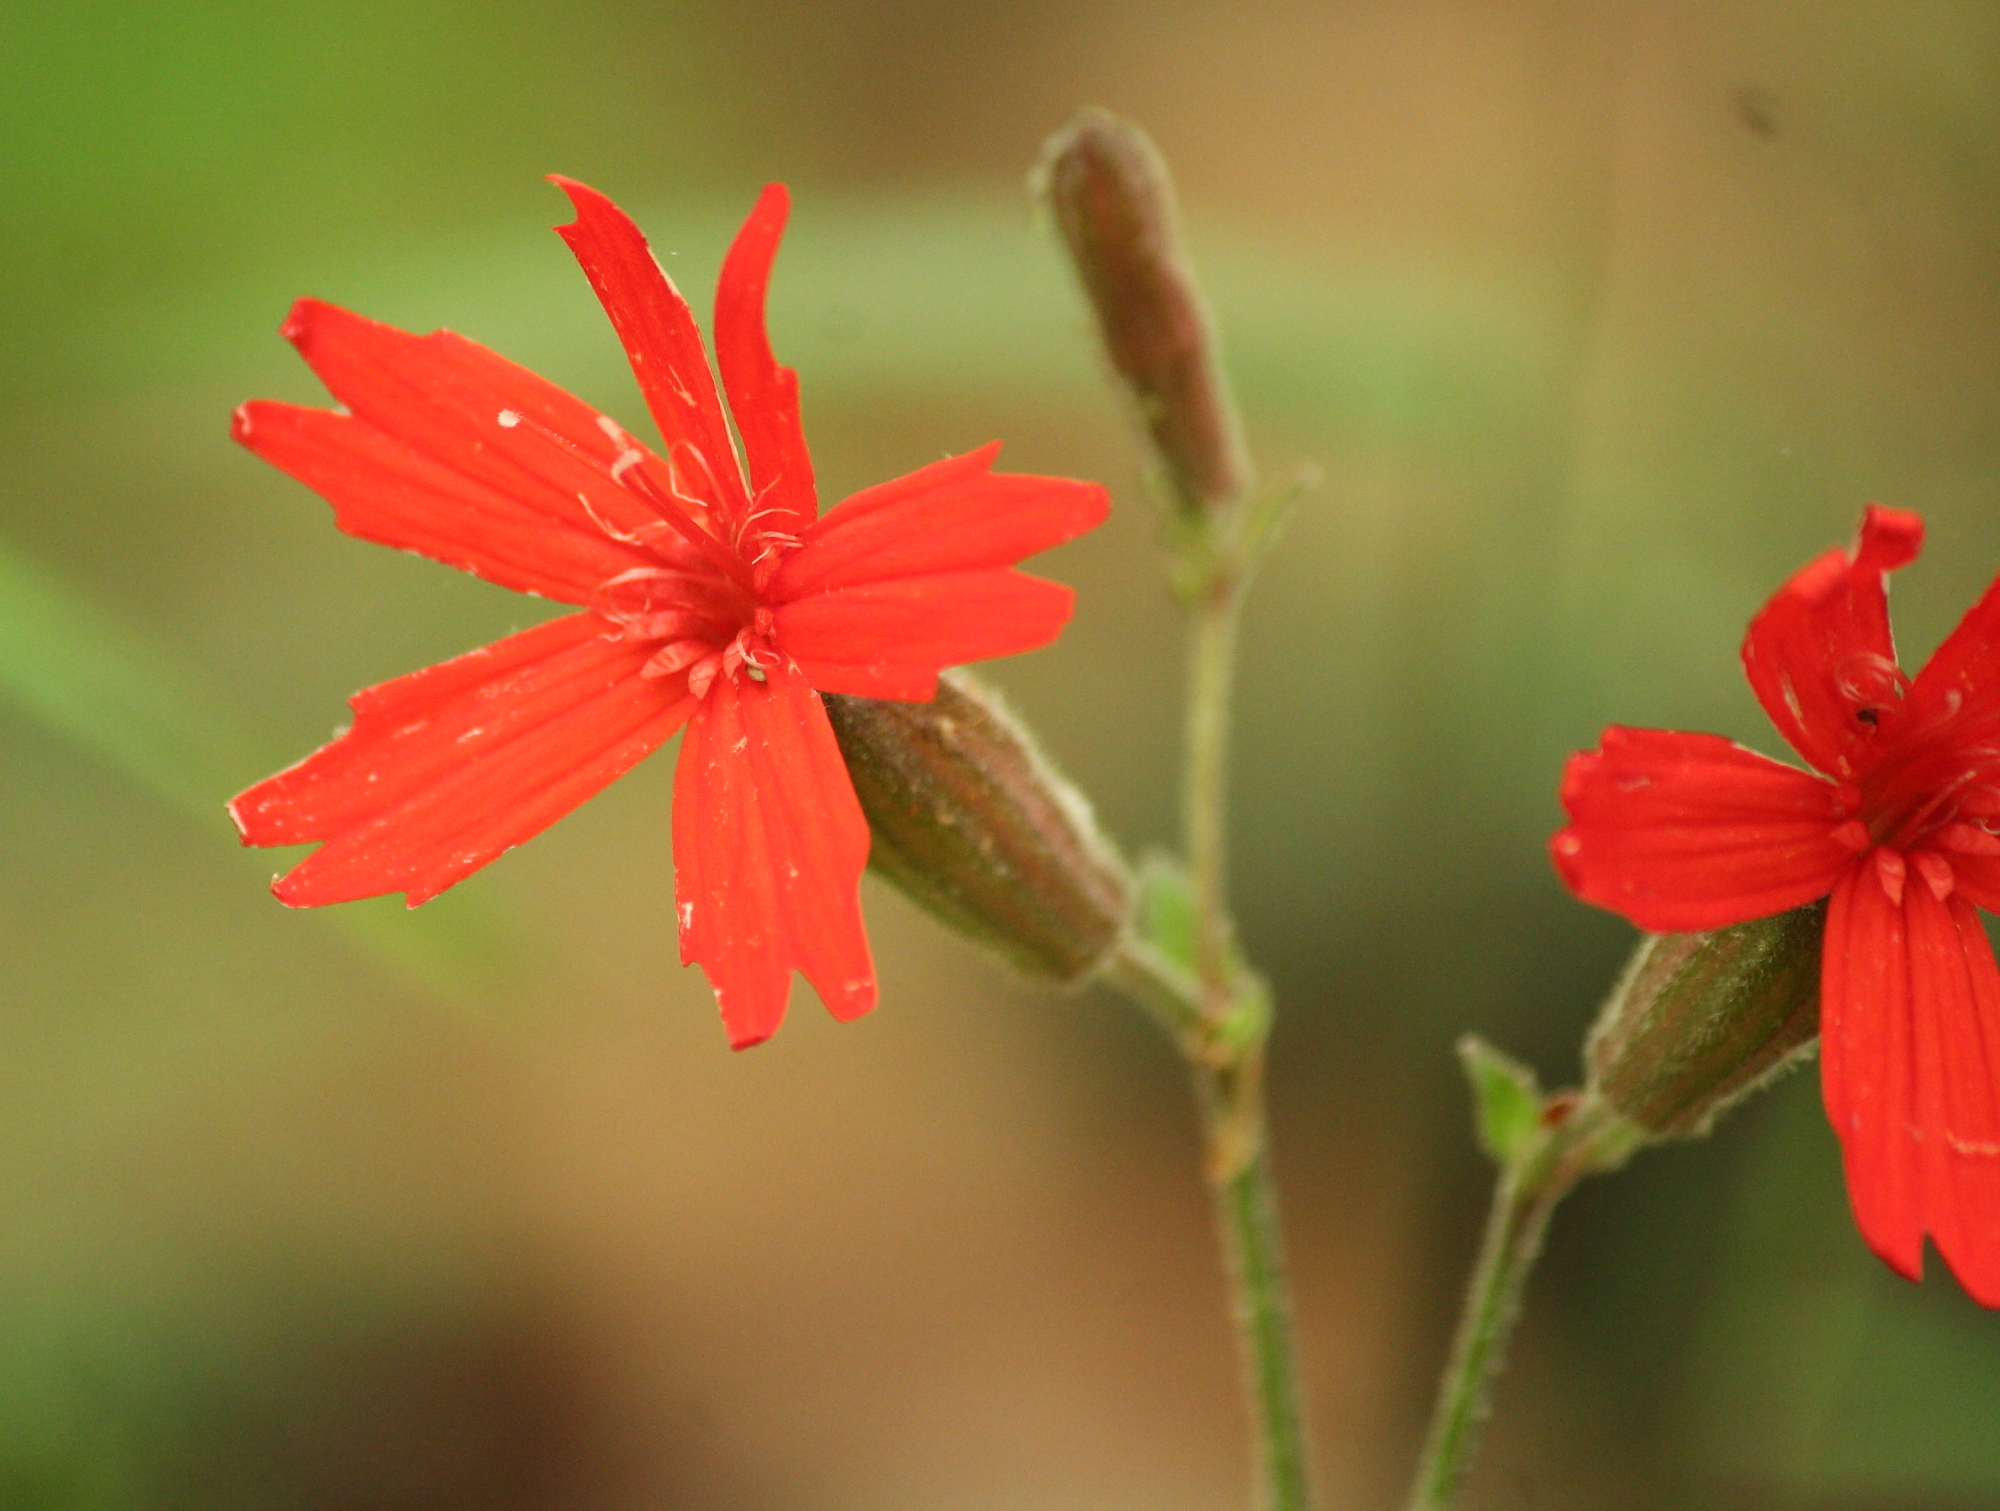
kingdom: Plantae
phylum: Tracheophyta
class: Magnoliopsida
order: Caryophyllales
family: Caryophyllaceae
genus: Silene
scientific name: Silene virginica
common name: Fire-pink
